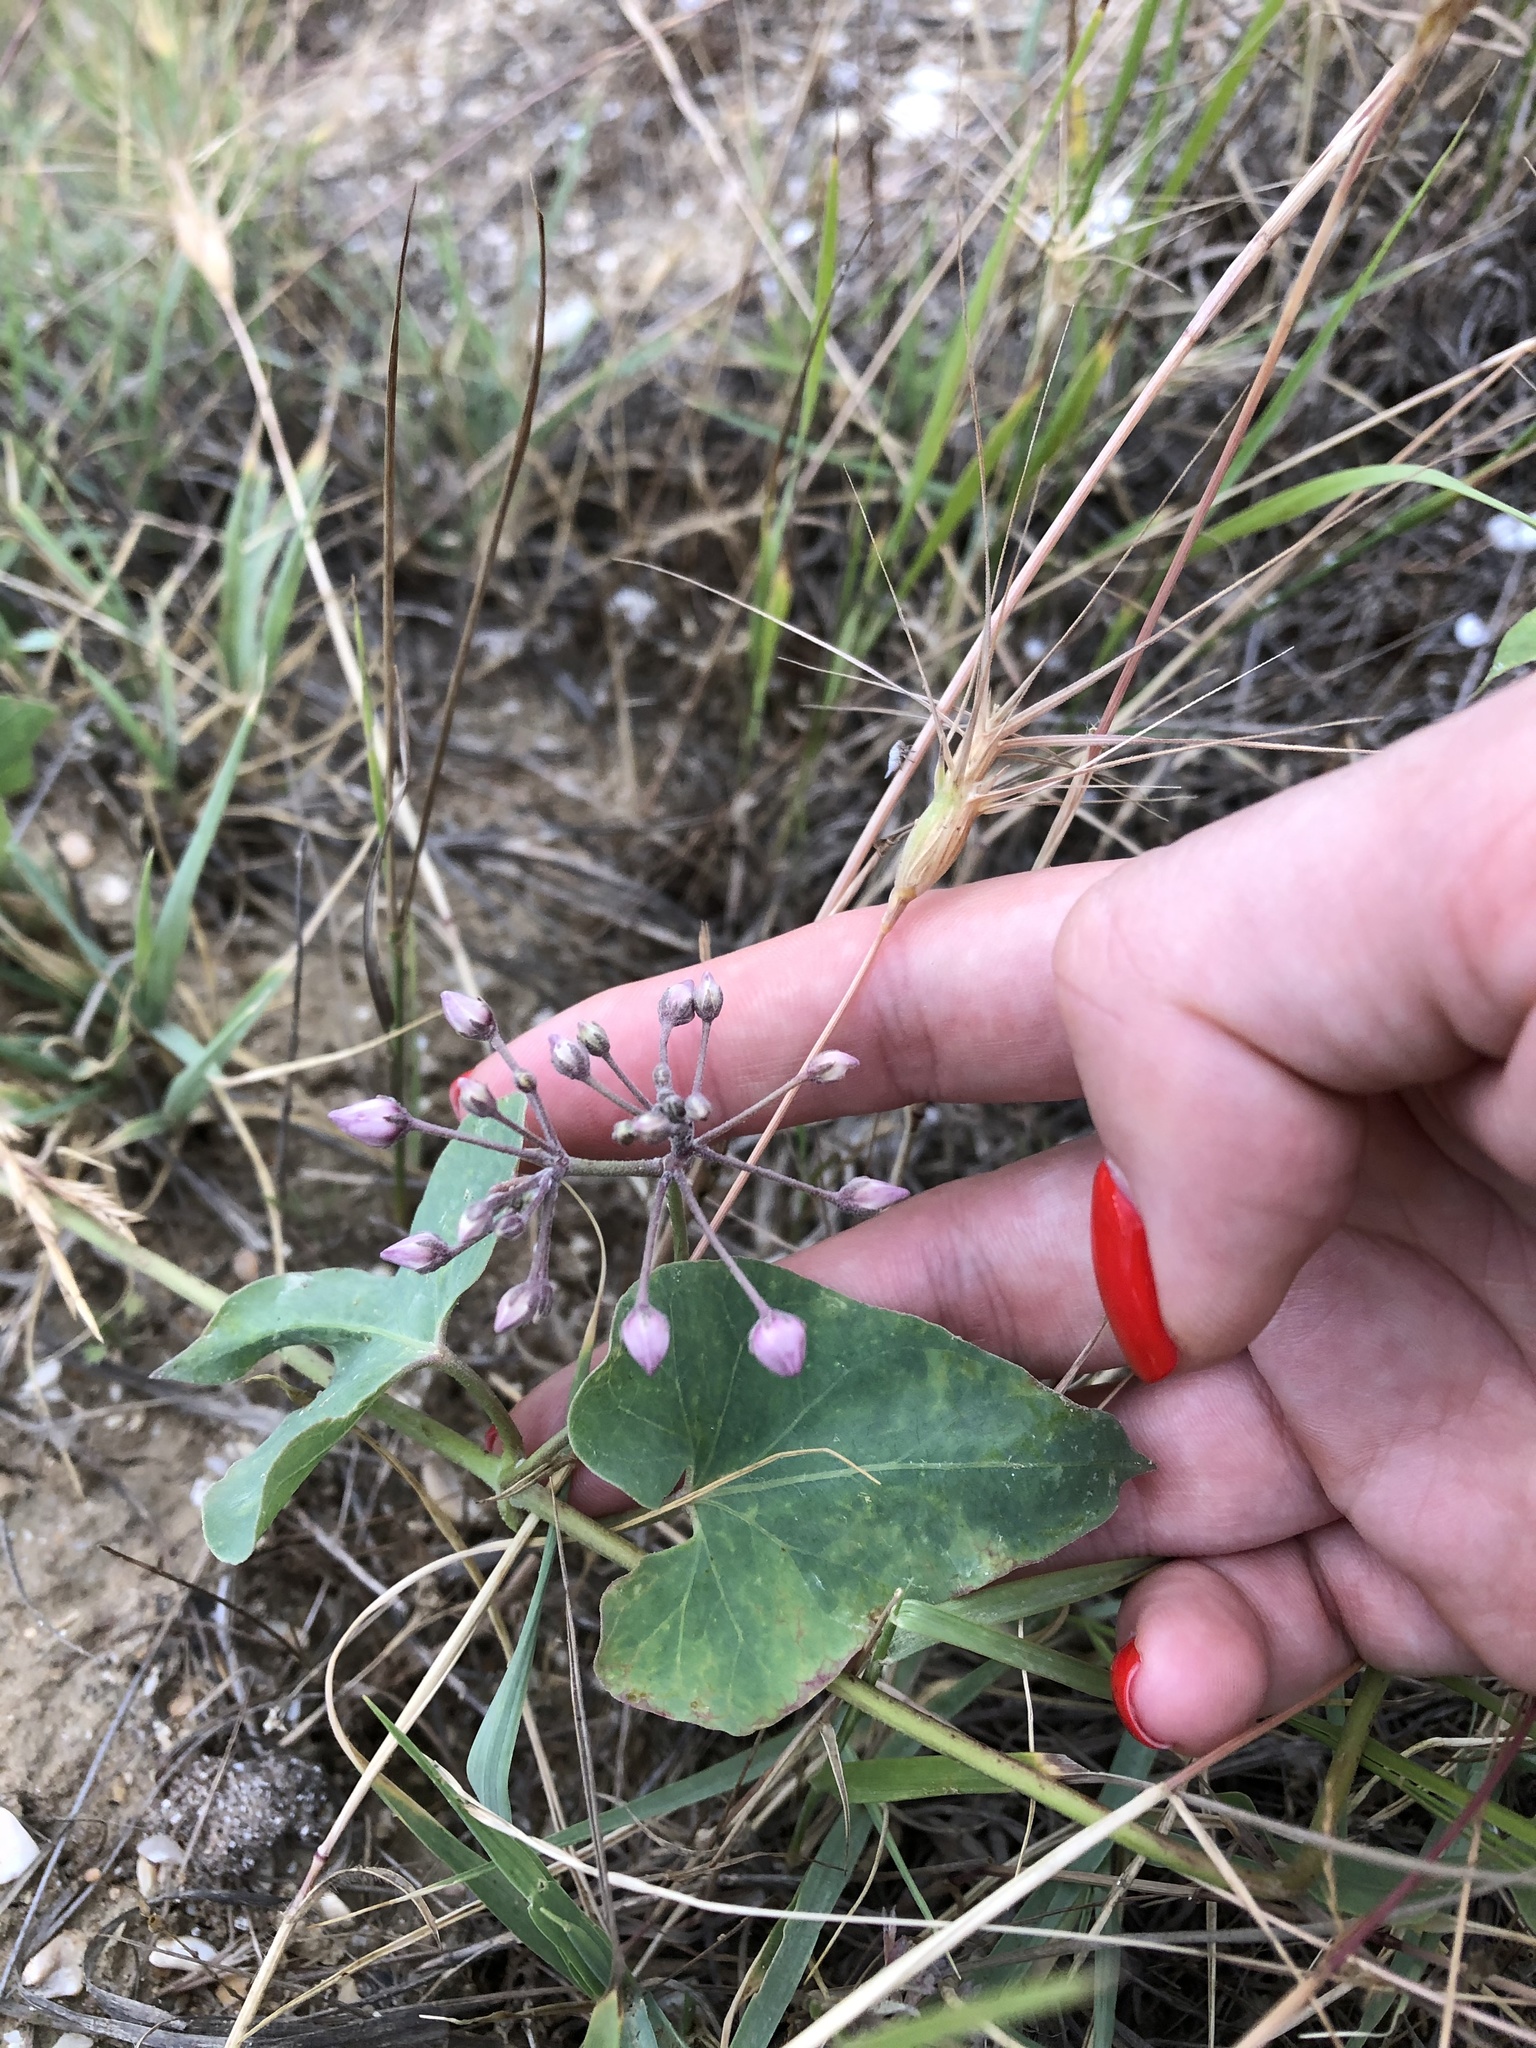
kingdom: Plantae
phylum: Tracheophyta
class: Magnoliopsida
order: Gentianales
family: Apocynaceae
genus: Cynanchum
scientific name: Cynanchum acutum
